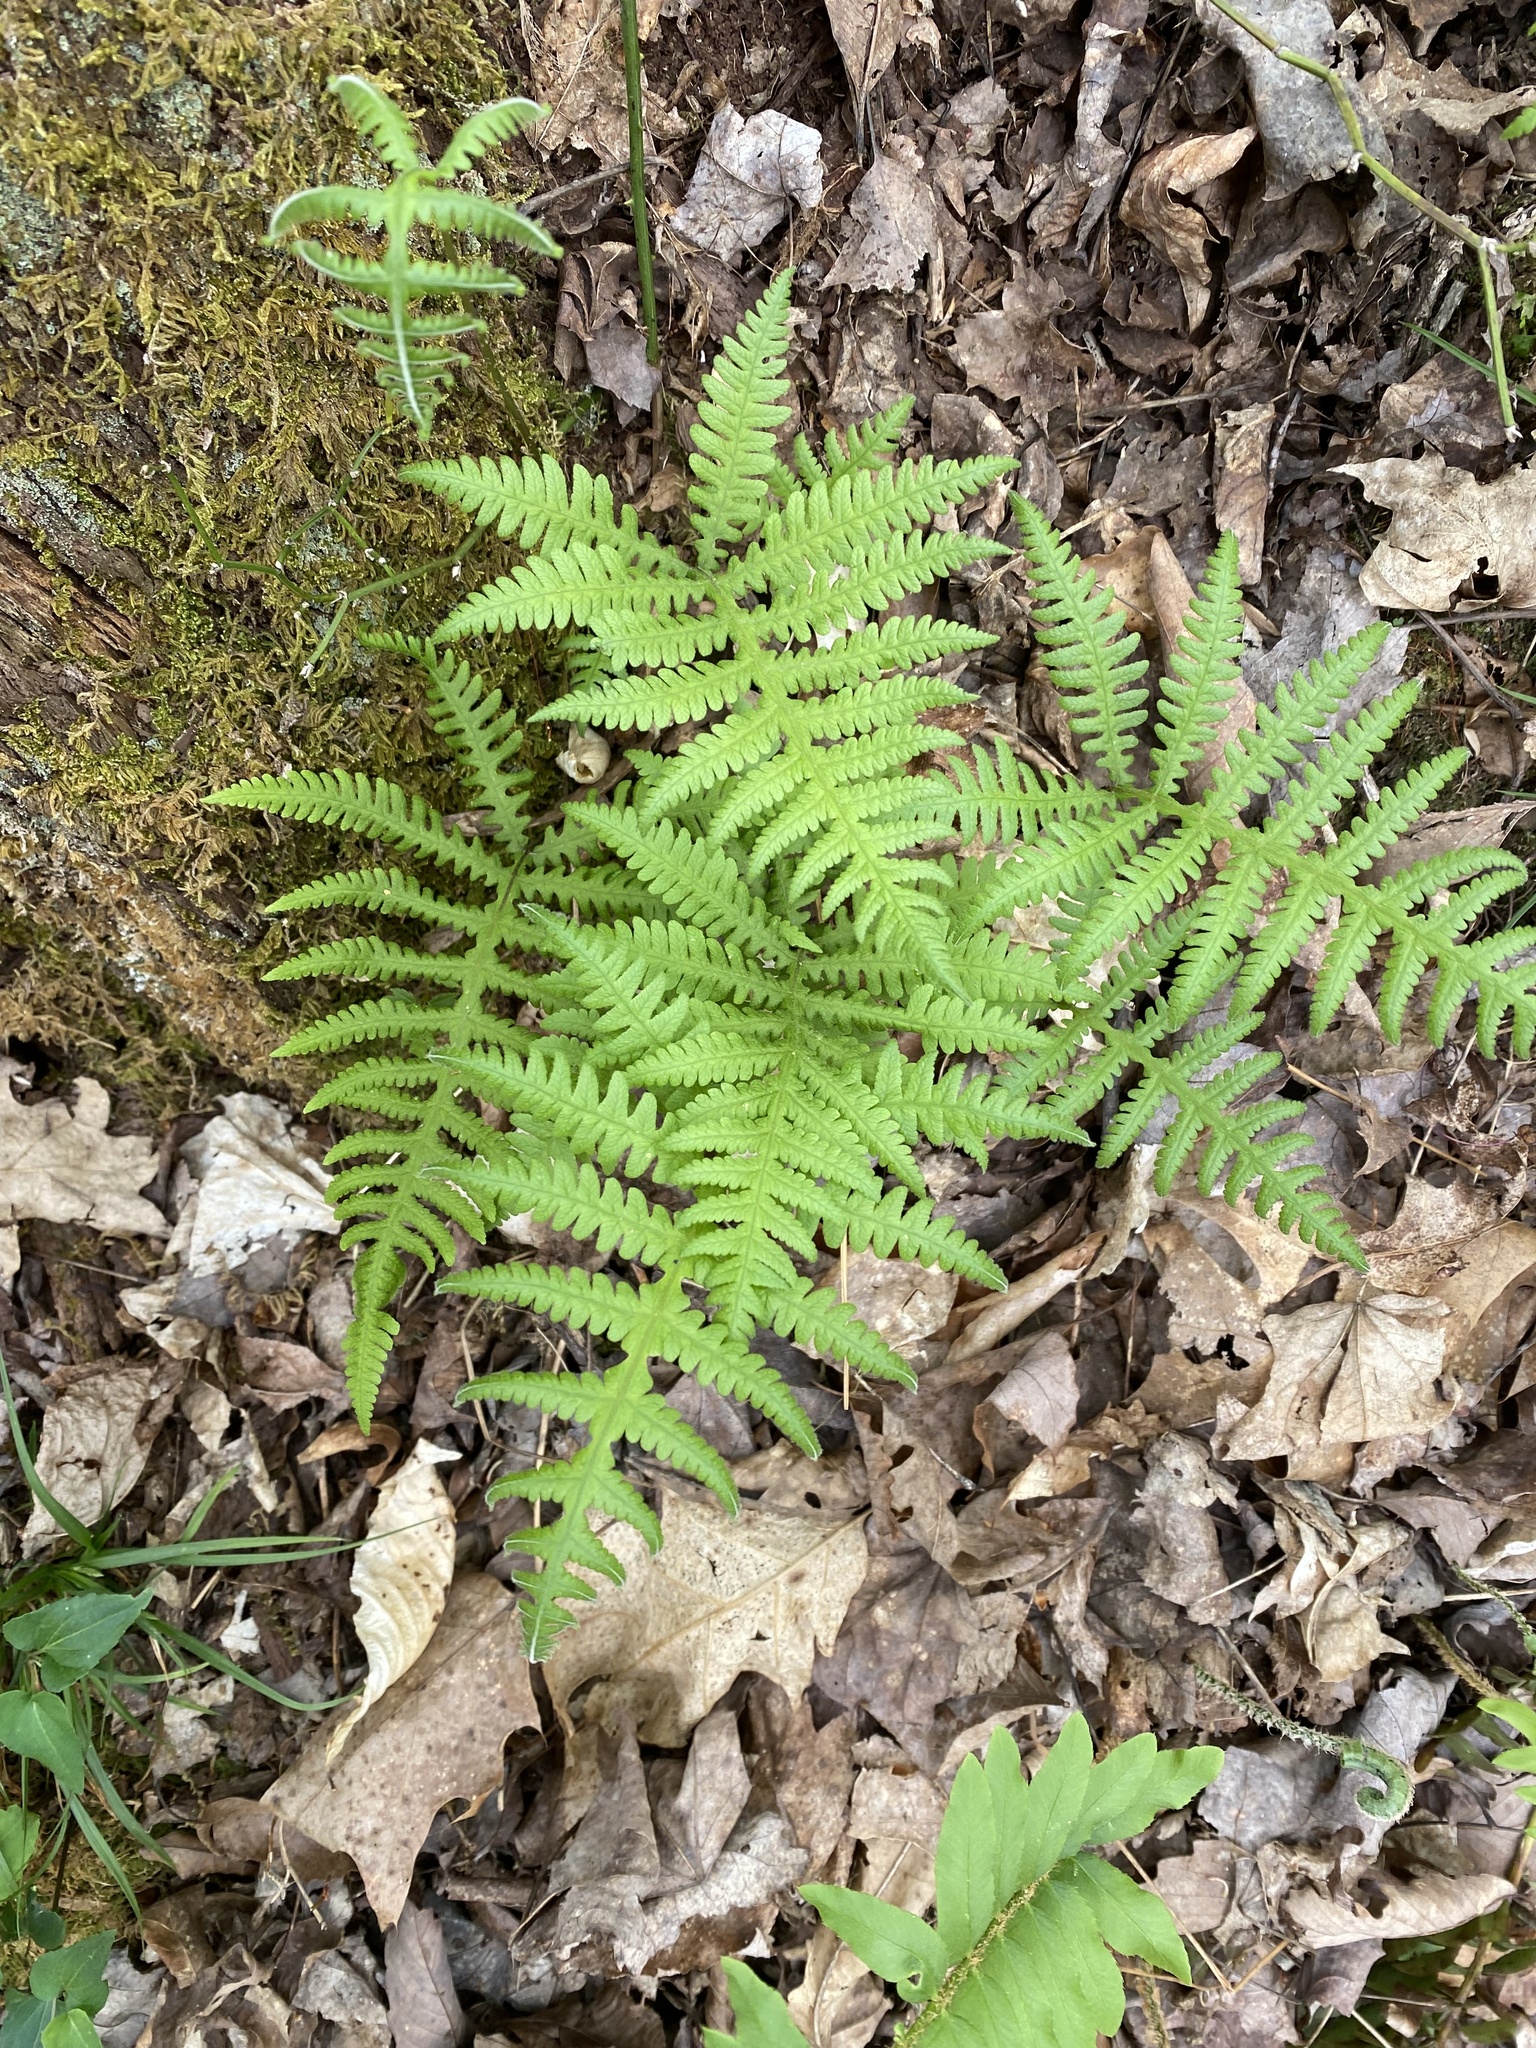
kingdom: Plantae
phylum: Tracheophyta
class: Polypodiopsida
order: Polypodiales
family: Thelypteridaceae
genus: Phegopteris
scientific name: Phegopteris hexagonoptera
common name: Broad beech fern
